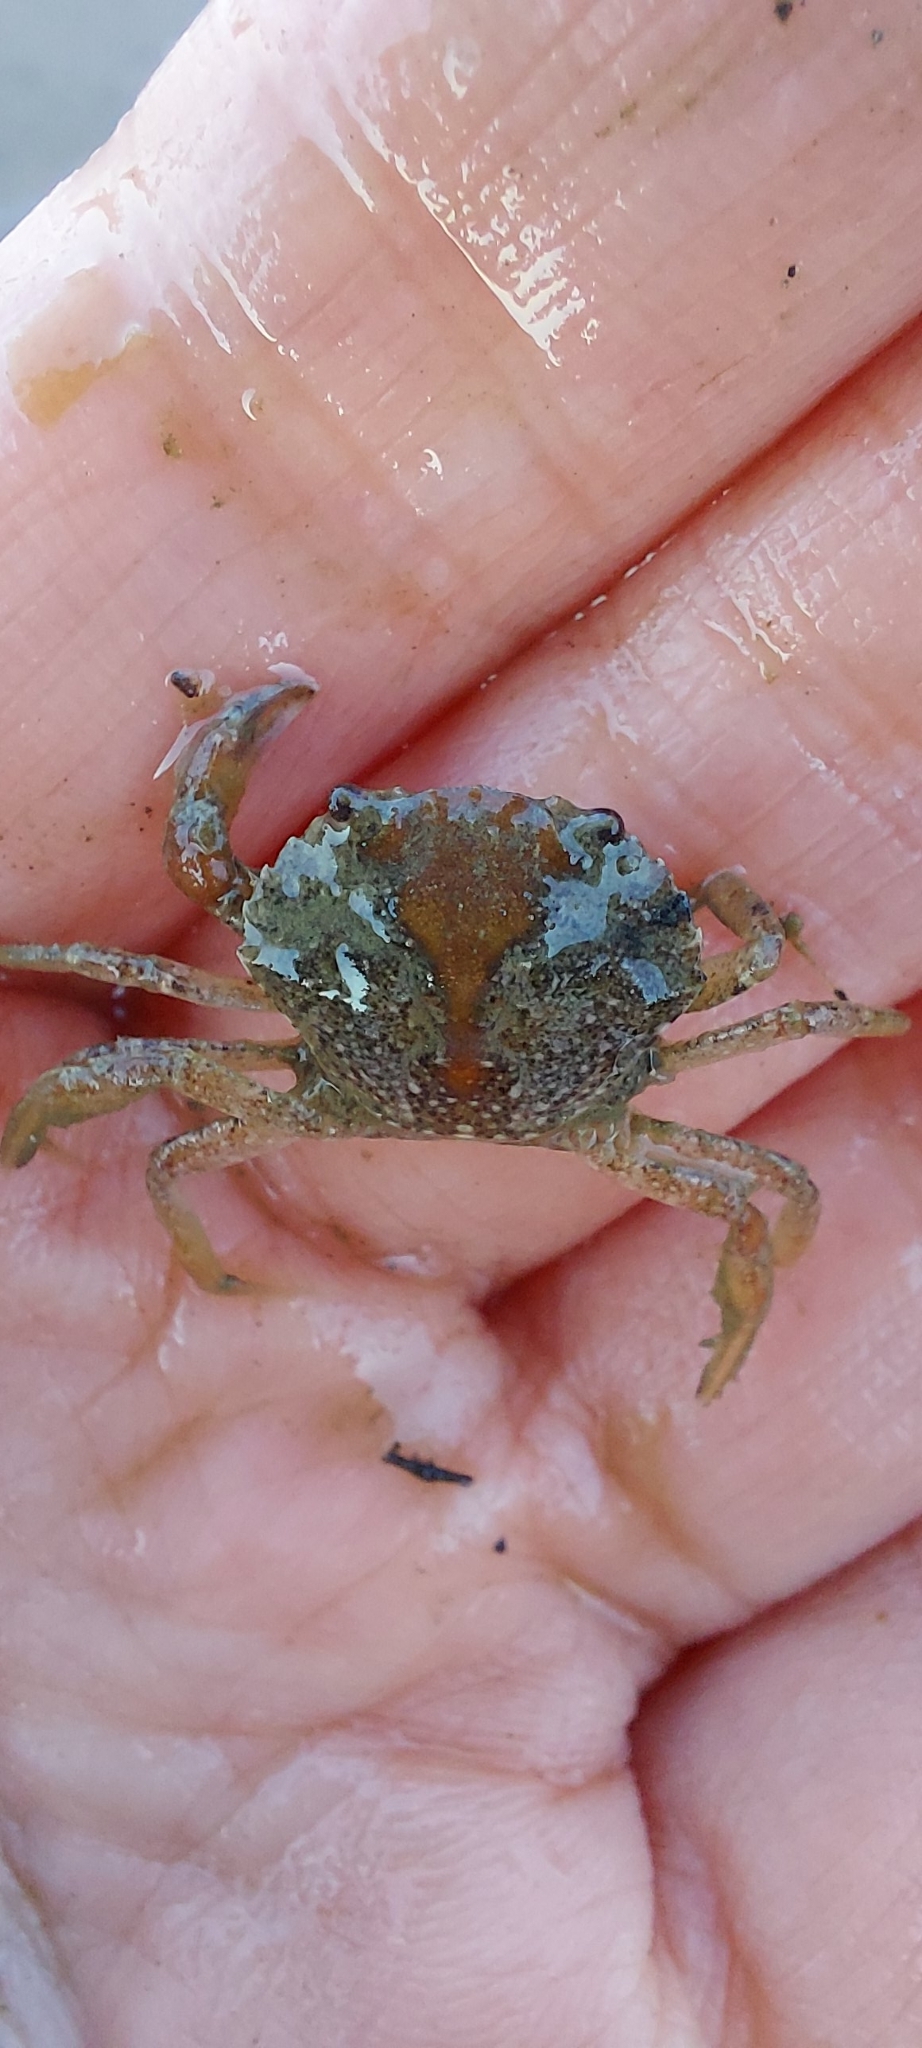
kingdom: Animalia
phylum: Arthropoda
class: Malacostraca
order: Decapoda
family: Carcinidae
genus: Carcinus
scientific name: Carcinus maenas
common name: European green crab
